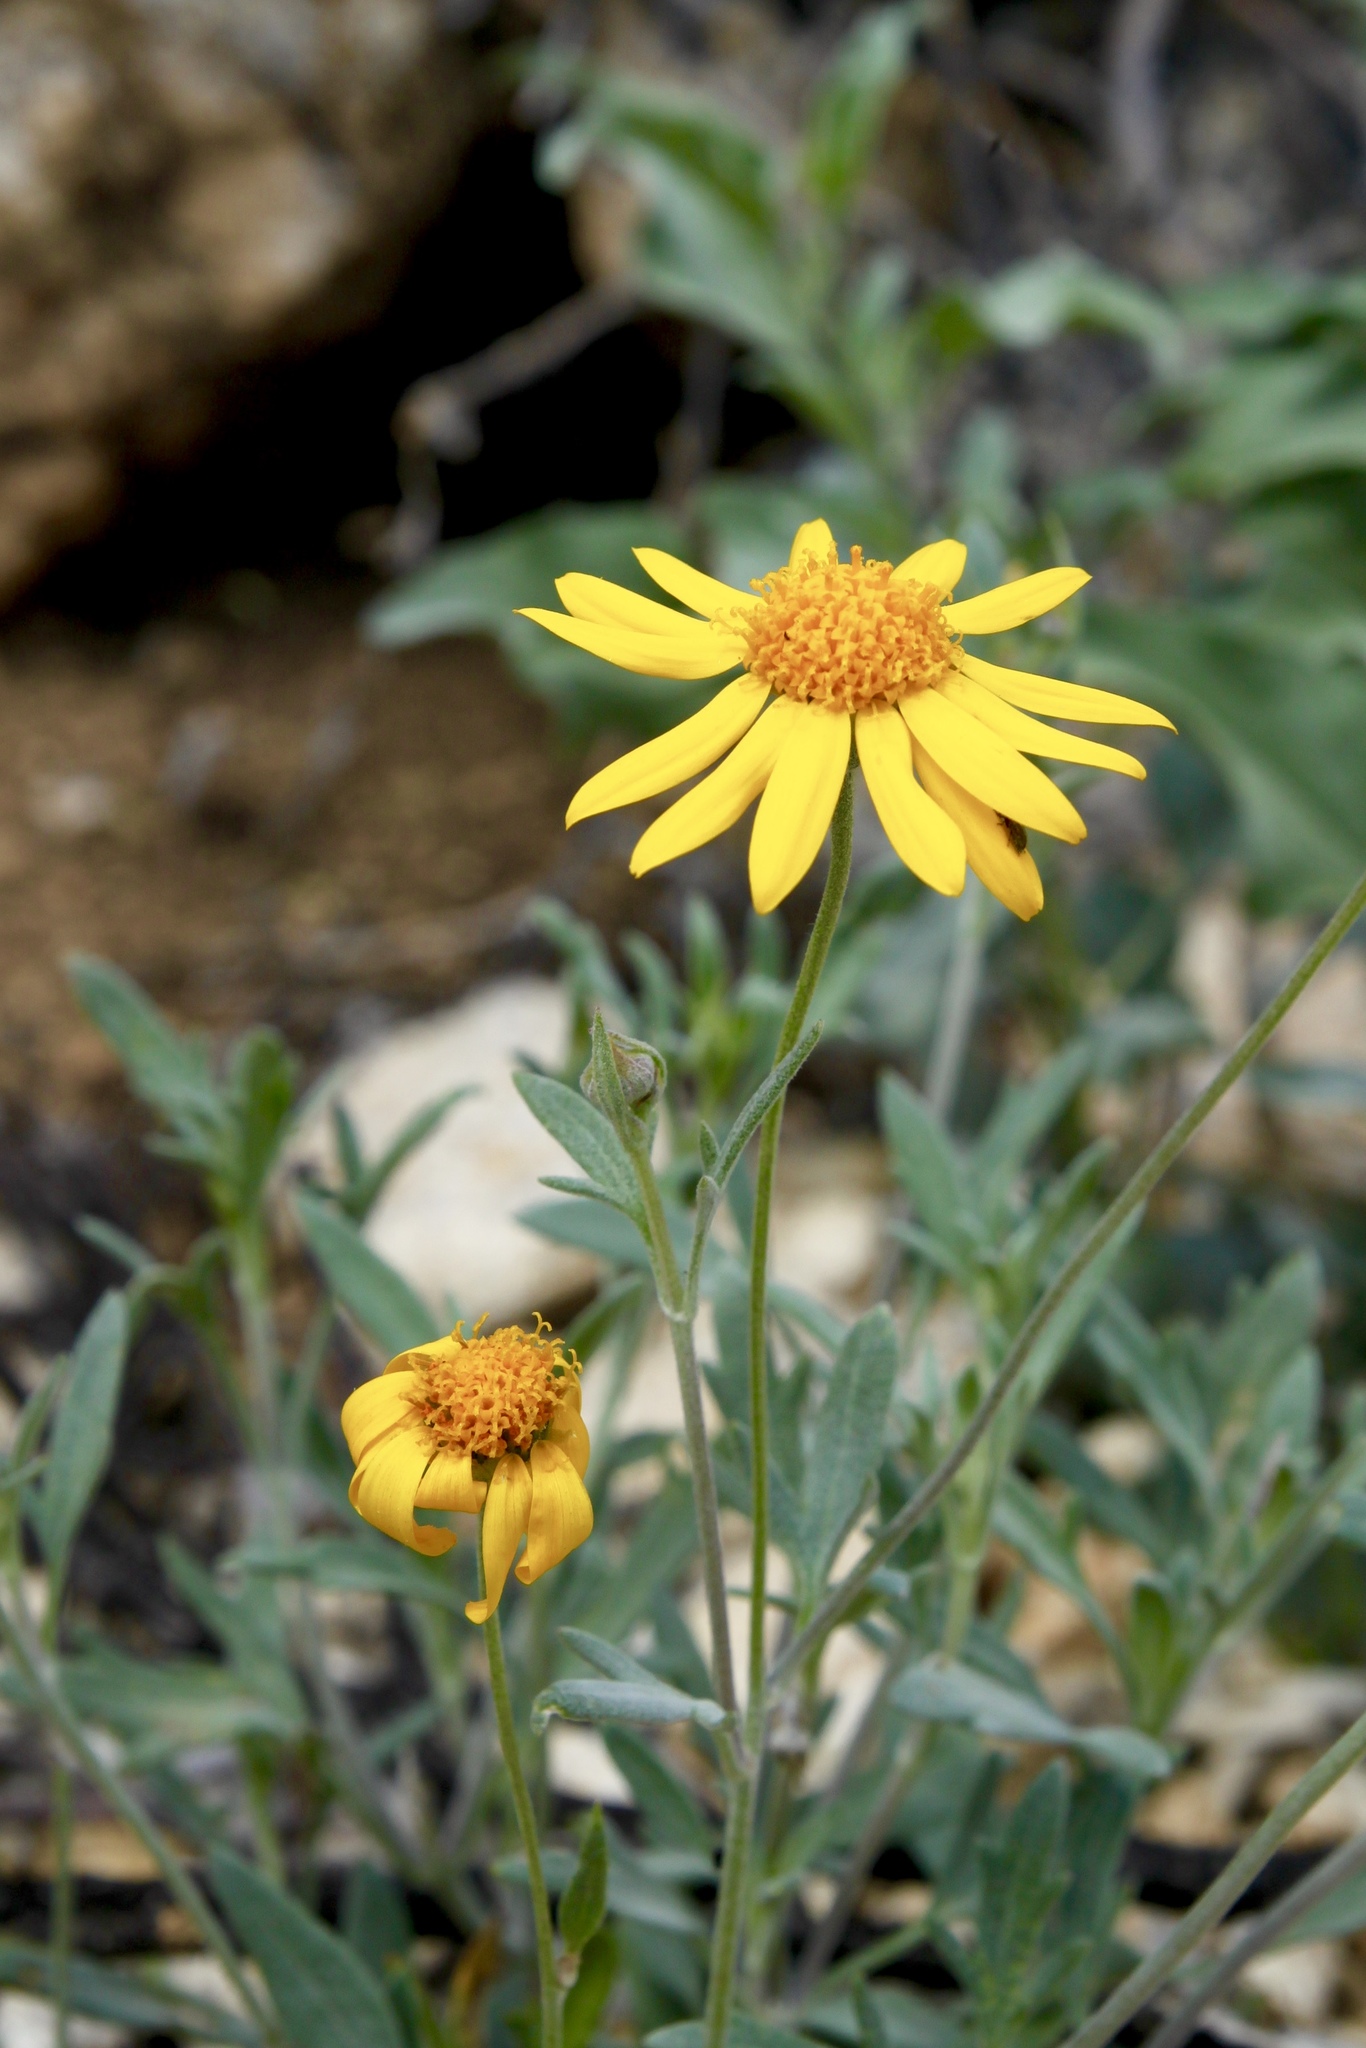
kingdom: Plantae
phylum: Tracheophyta
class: Magnoliopsida
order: Asterales
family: Asteraceae
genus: Picradeniopsis
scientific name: Picradeniopsis absinthifolia
